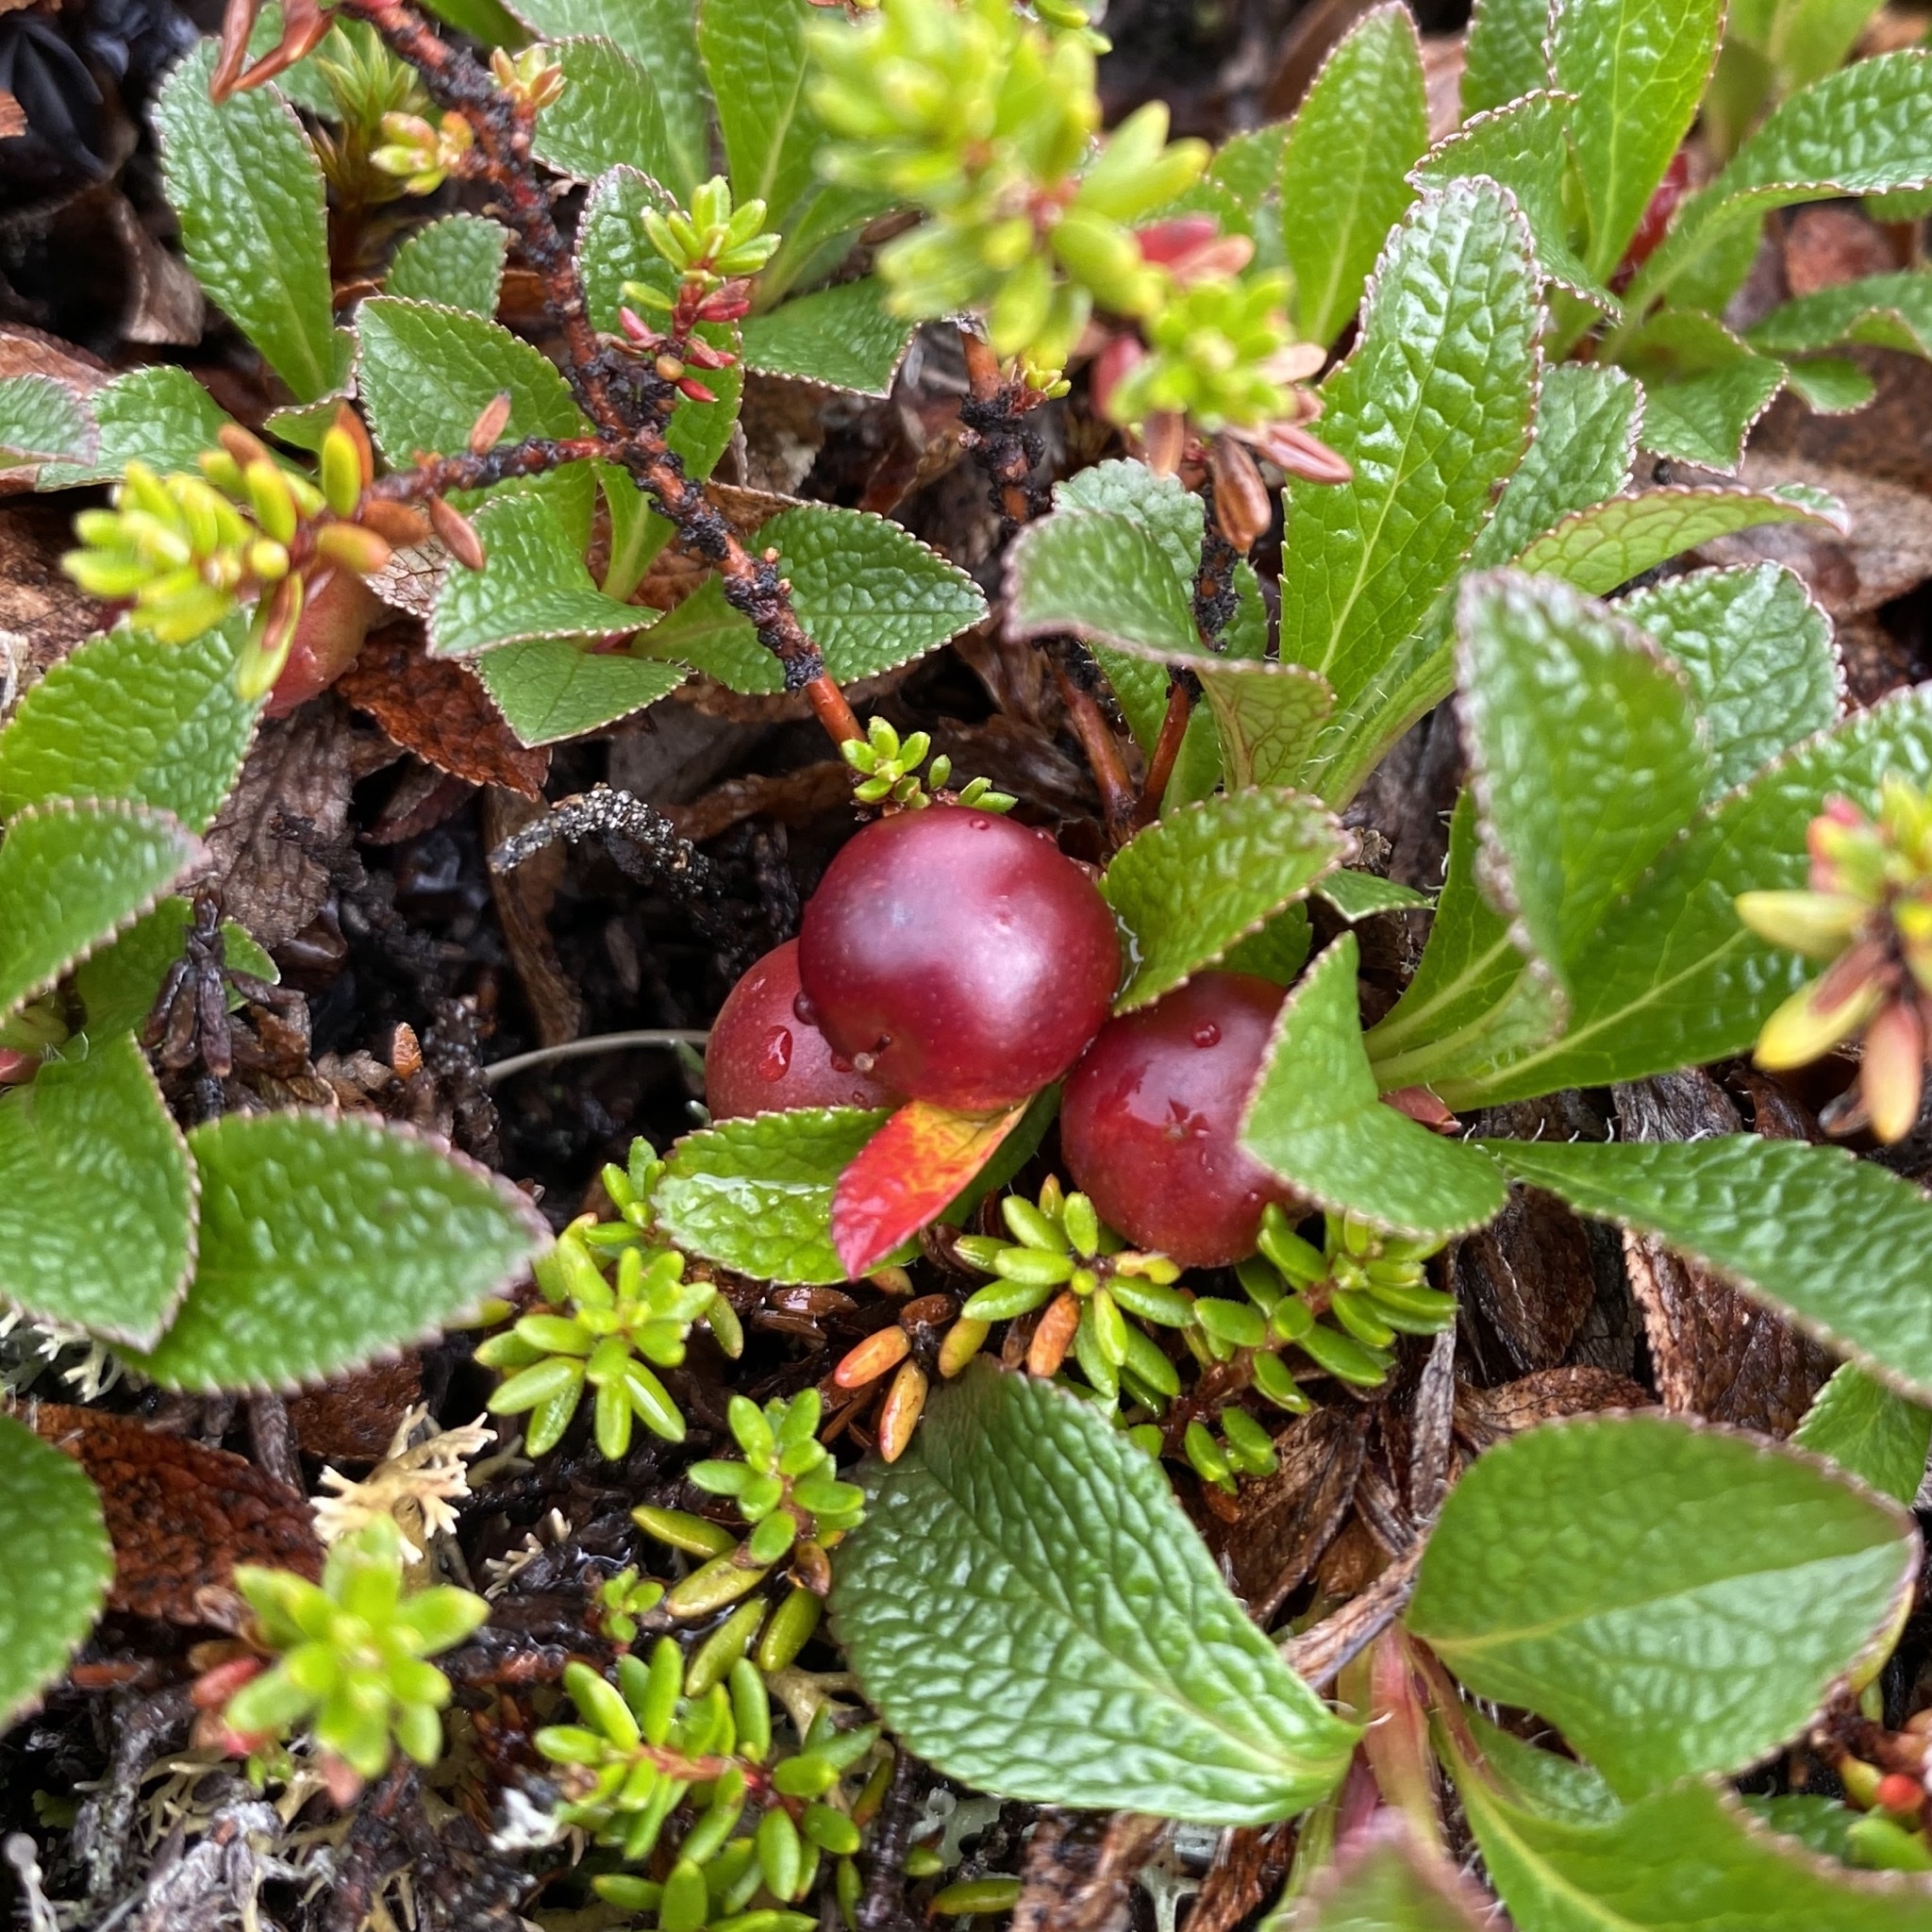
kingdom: Plantae
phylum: Tracheophyta
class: Magnoliopsida
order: Ericales
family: Ericaceae
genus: Arctostaphylos
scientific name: Arctostaphylos alpinus
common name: Alpine bearberry
